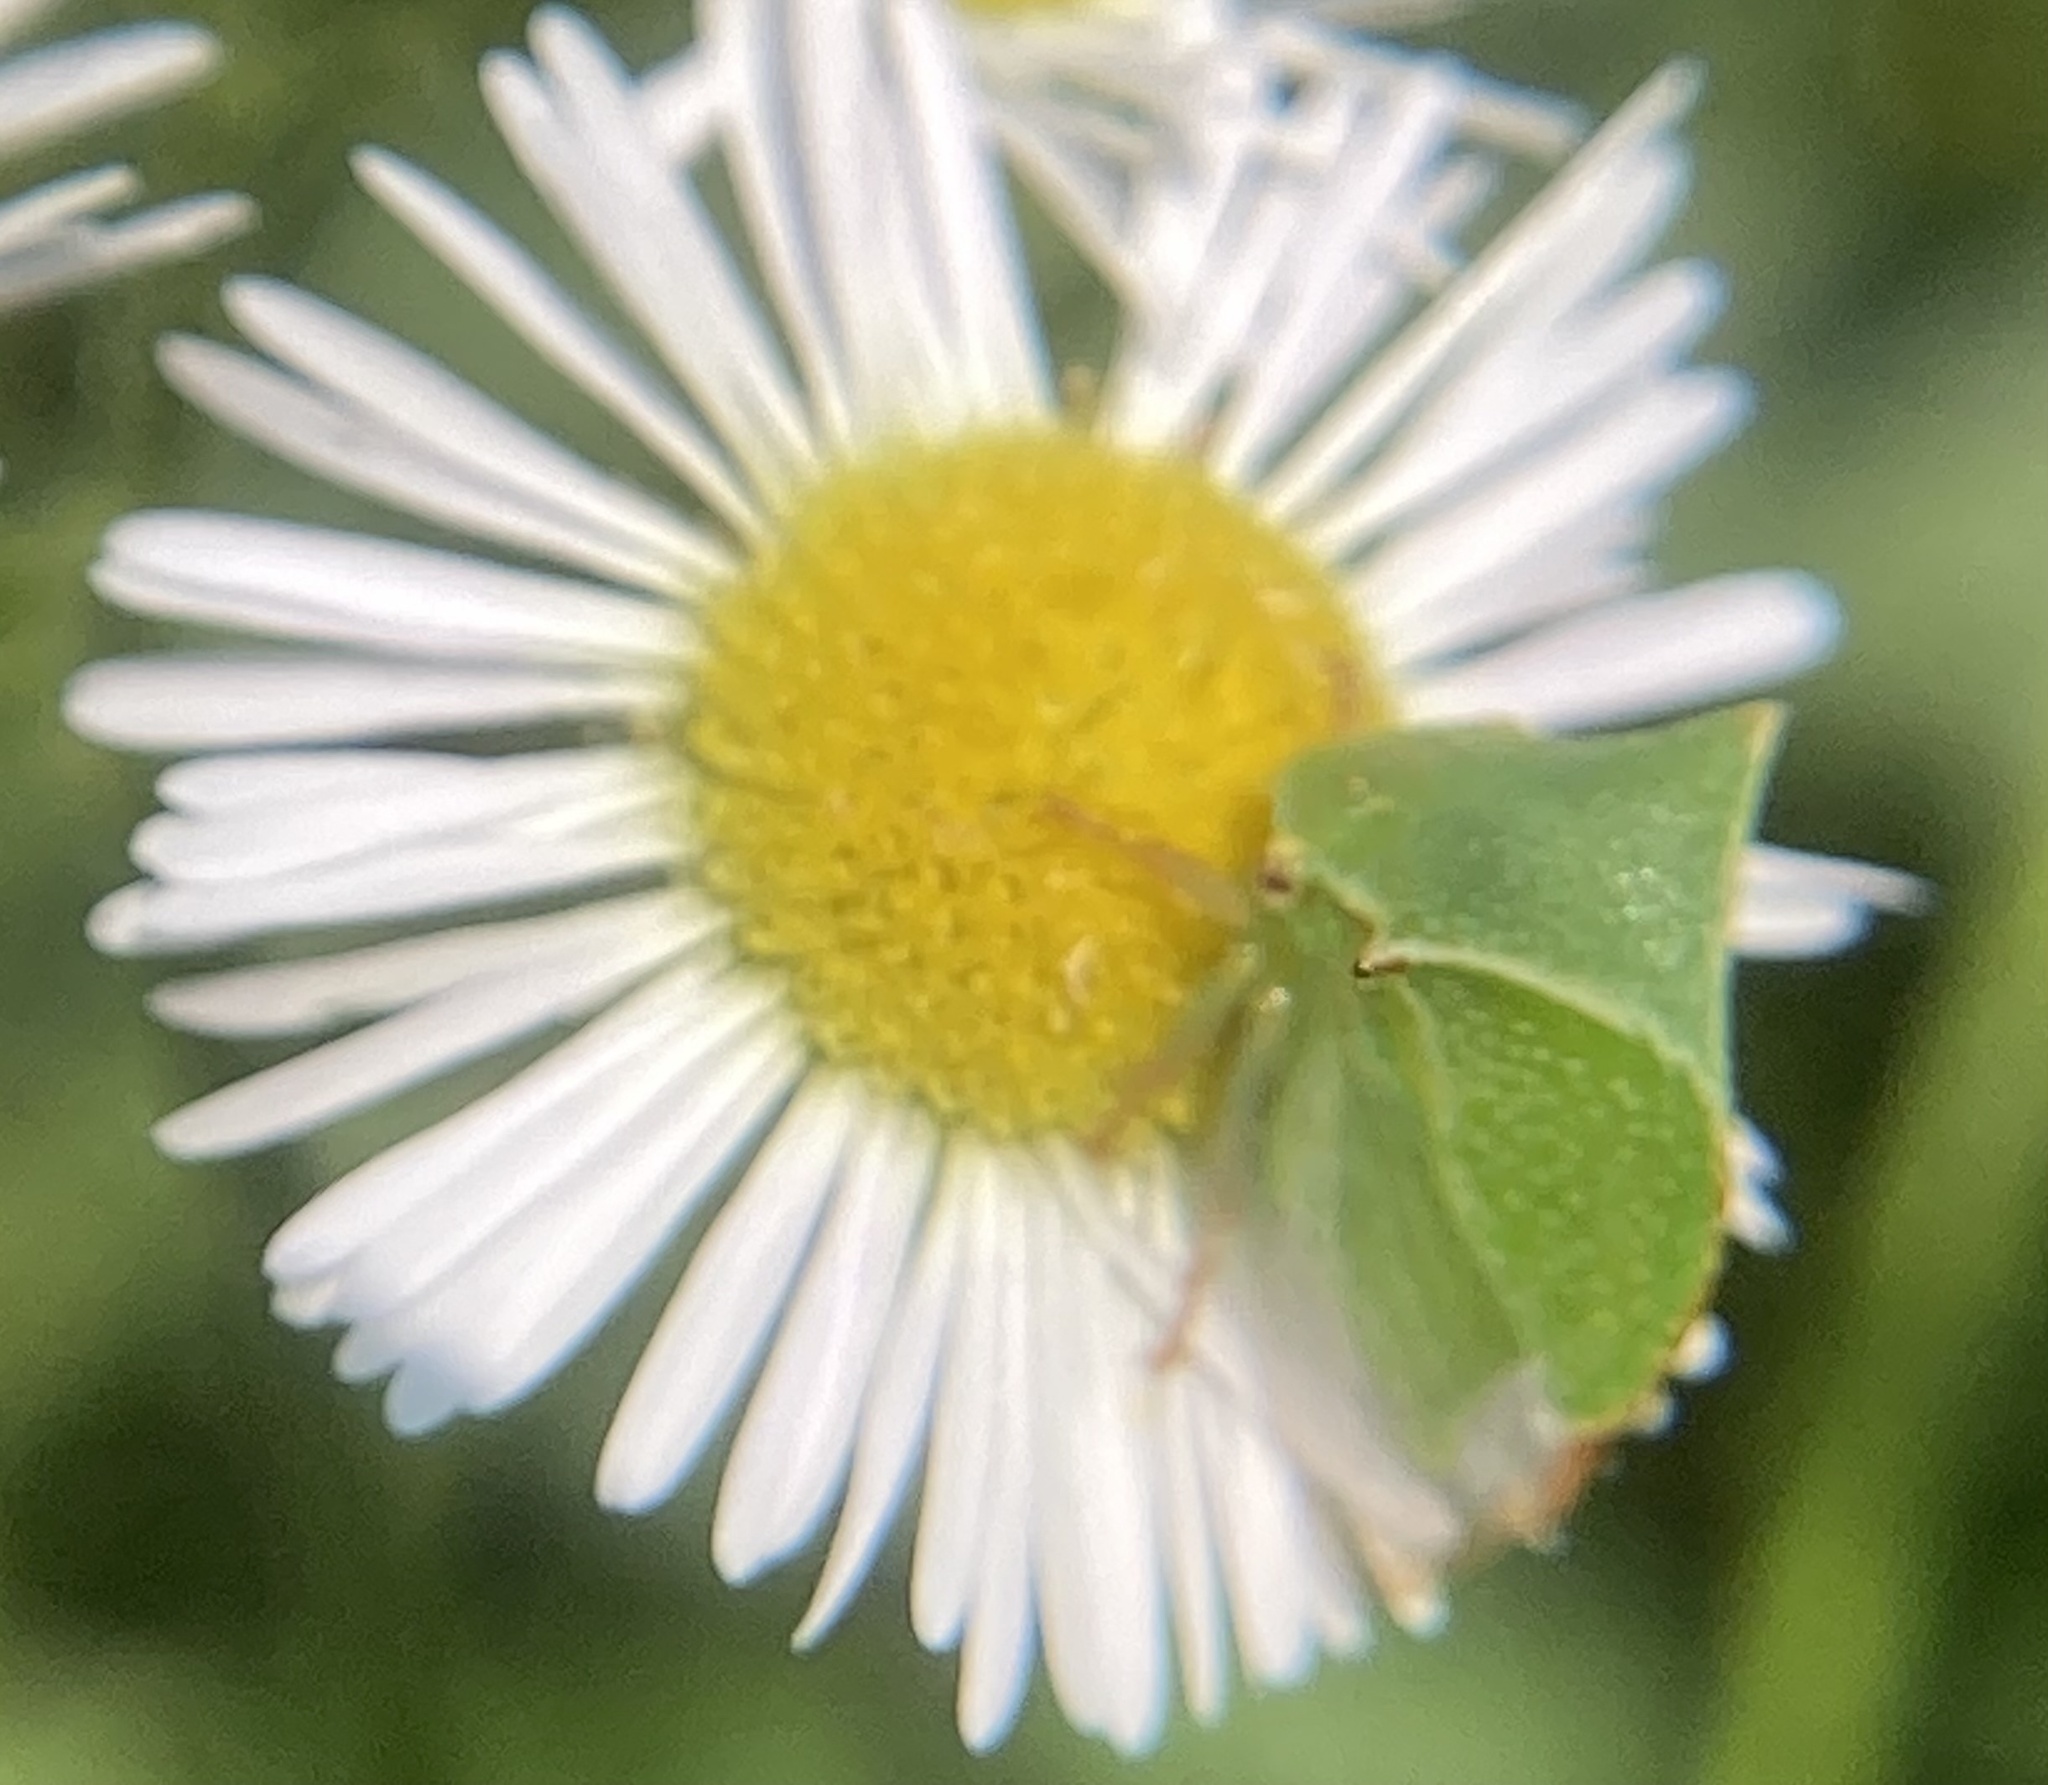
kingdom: Animalia
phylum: Arthropoda
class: Insecta
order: Hemiptera
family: Membracidae
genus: Stictocephala
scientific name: Stictocephala bisonia
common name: American buffalo treehopper
